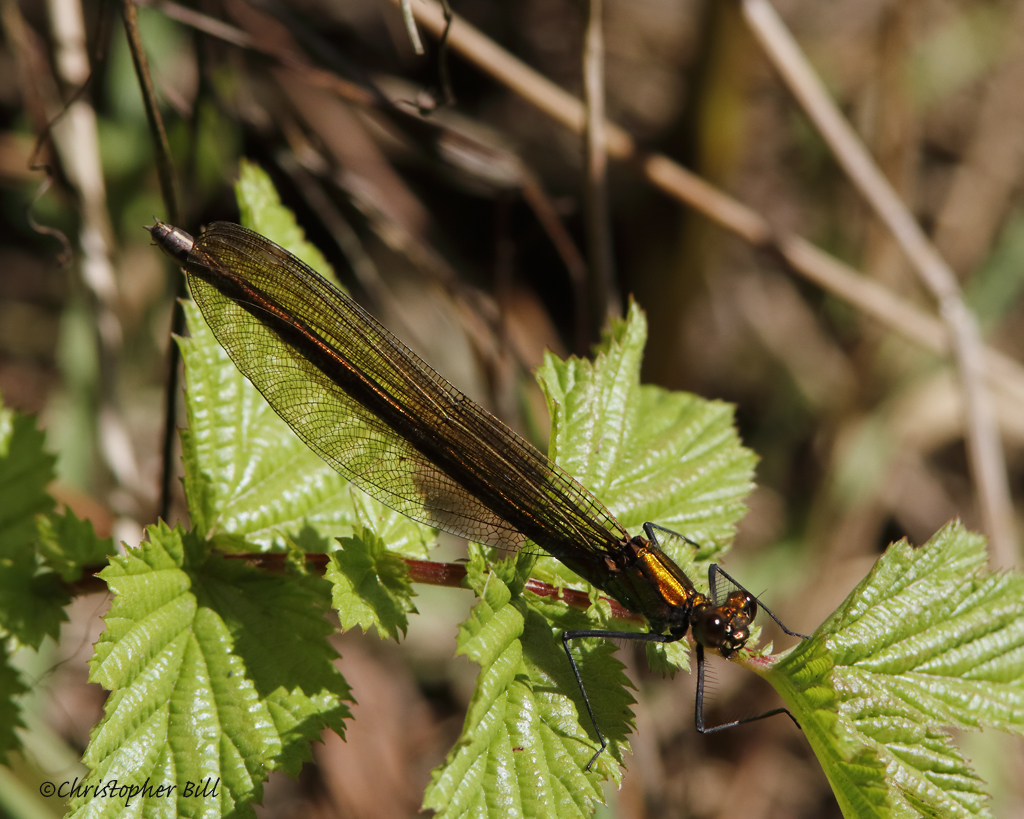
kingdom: Animalia
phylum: Arthropoda
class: Insecta
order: Odonata
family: Calopterygidae
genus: Calopteryx
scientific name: Calopteryx virgo
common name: Beautiful demoiselle
